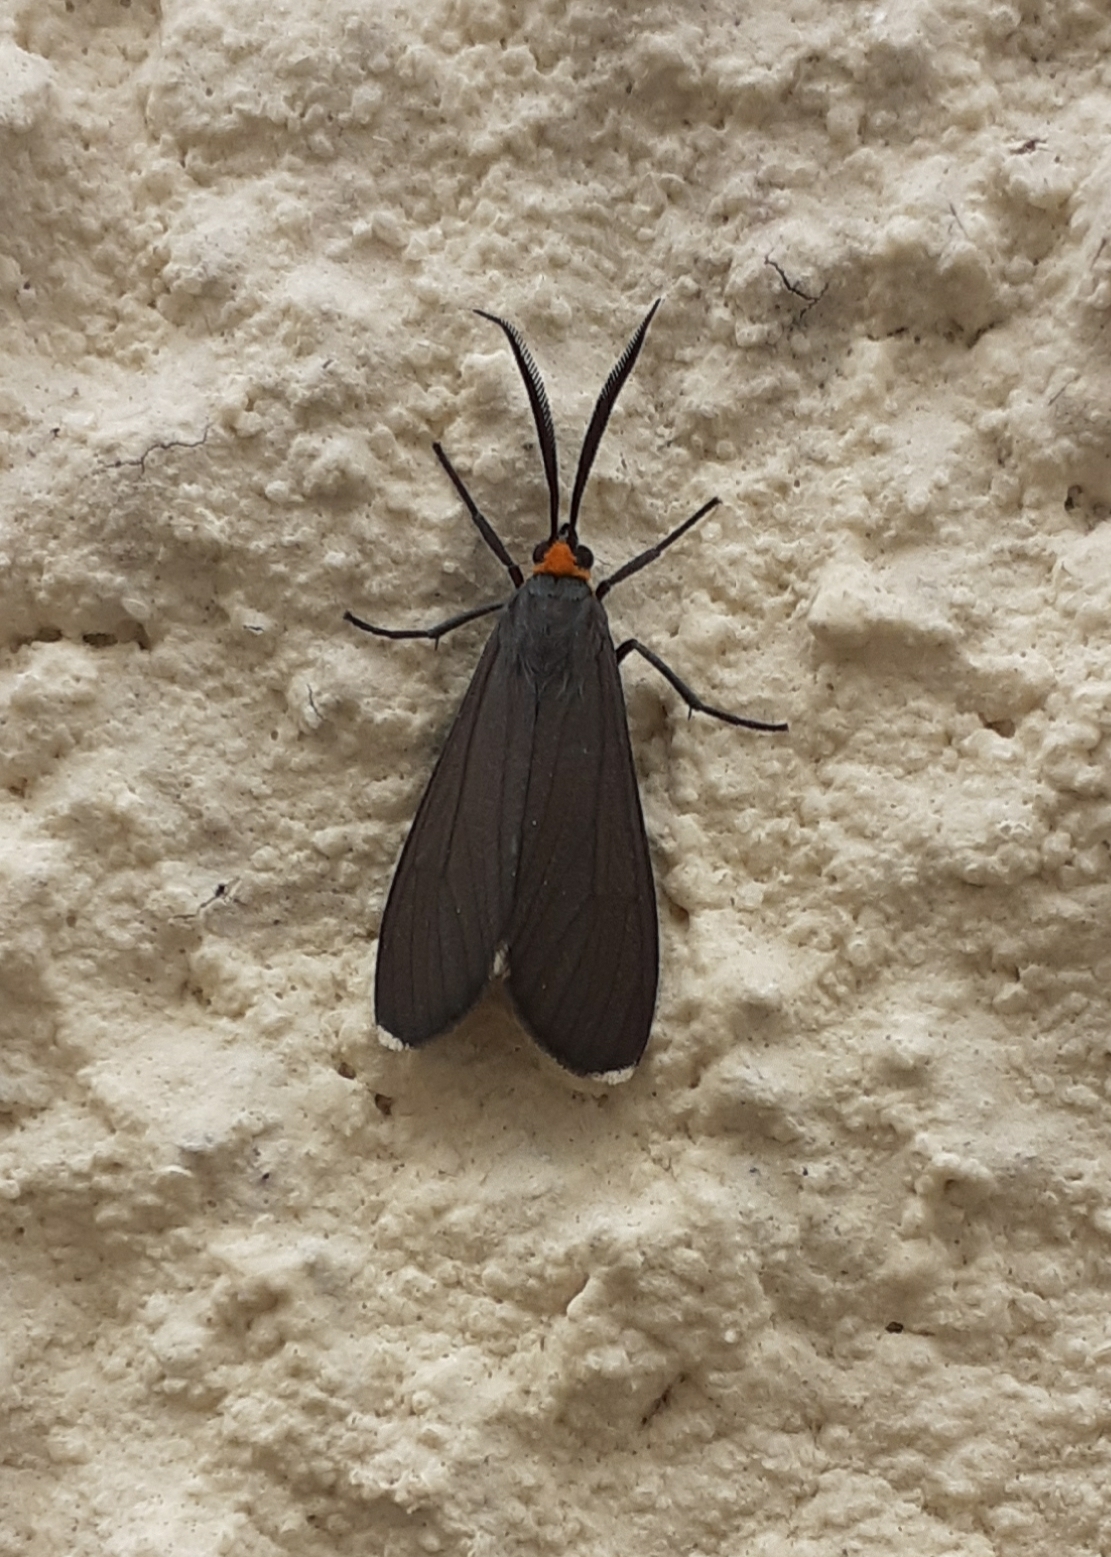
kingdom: Animalia
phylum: Arthropoda
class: Insecta
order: Lepidoptera
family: Erebidae
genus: Ctenucha
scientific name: Ctenucha rubriceps
